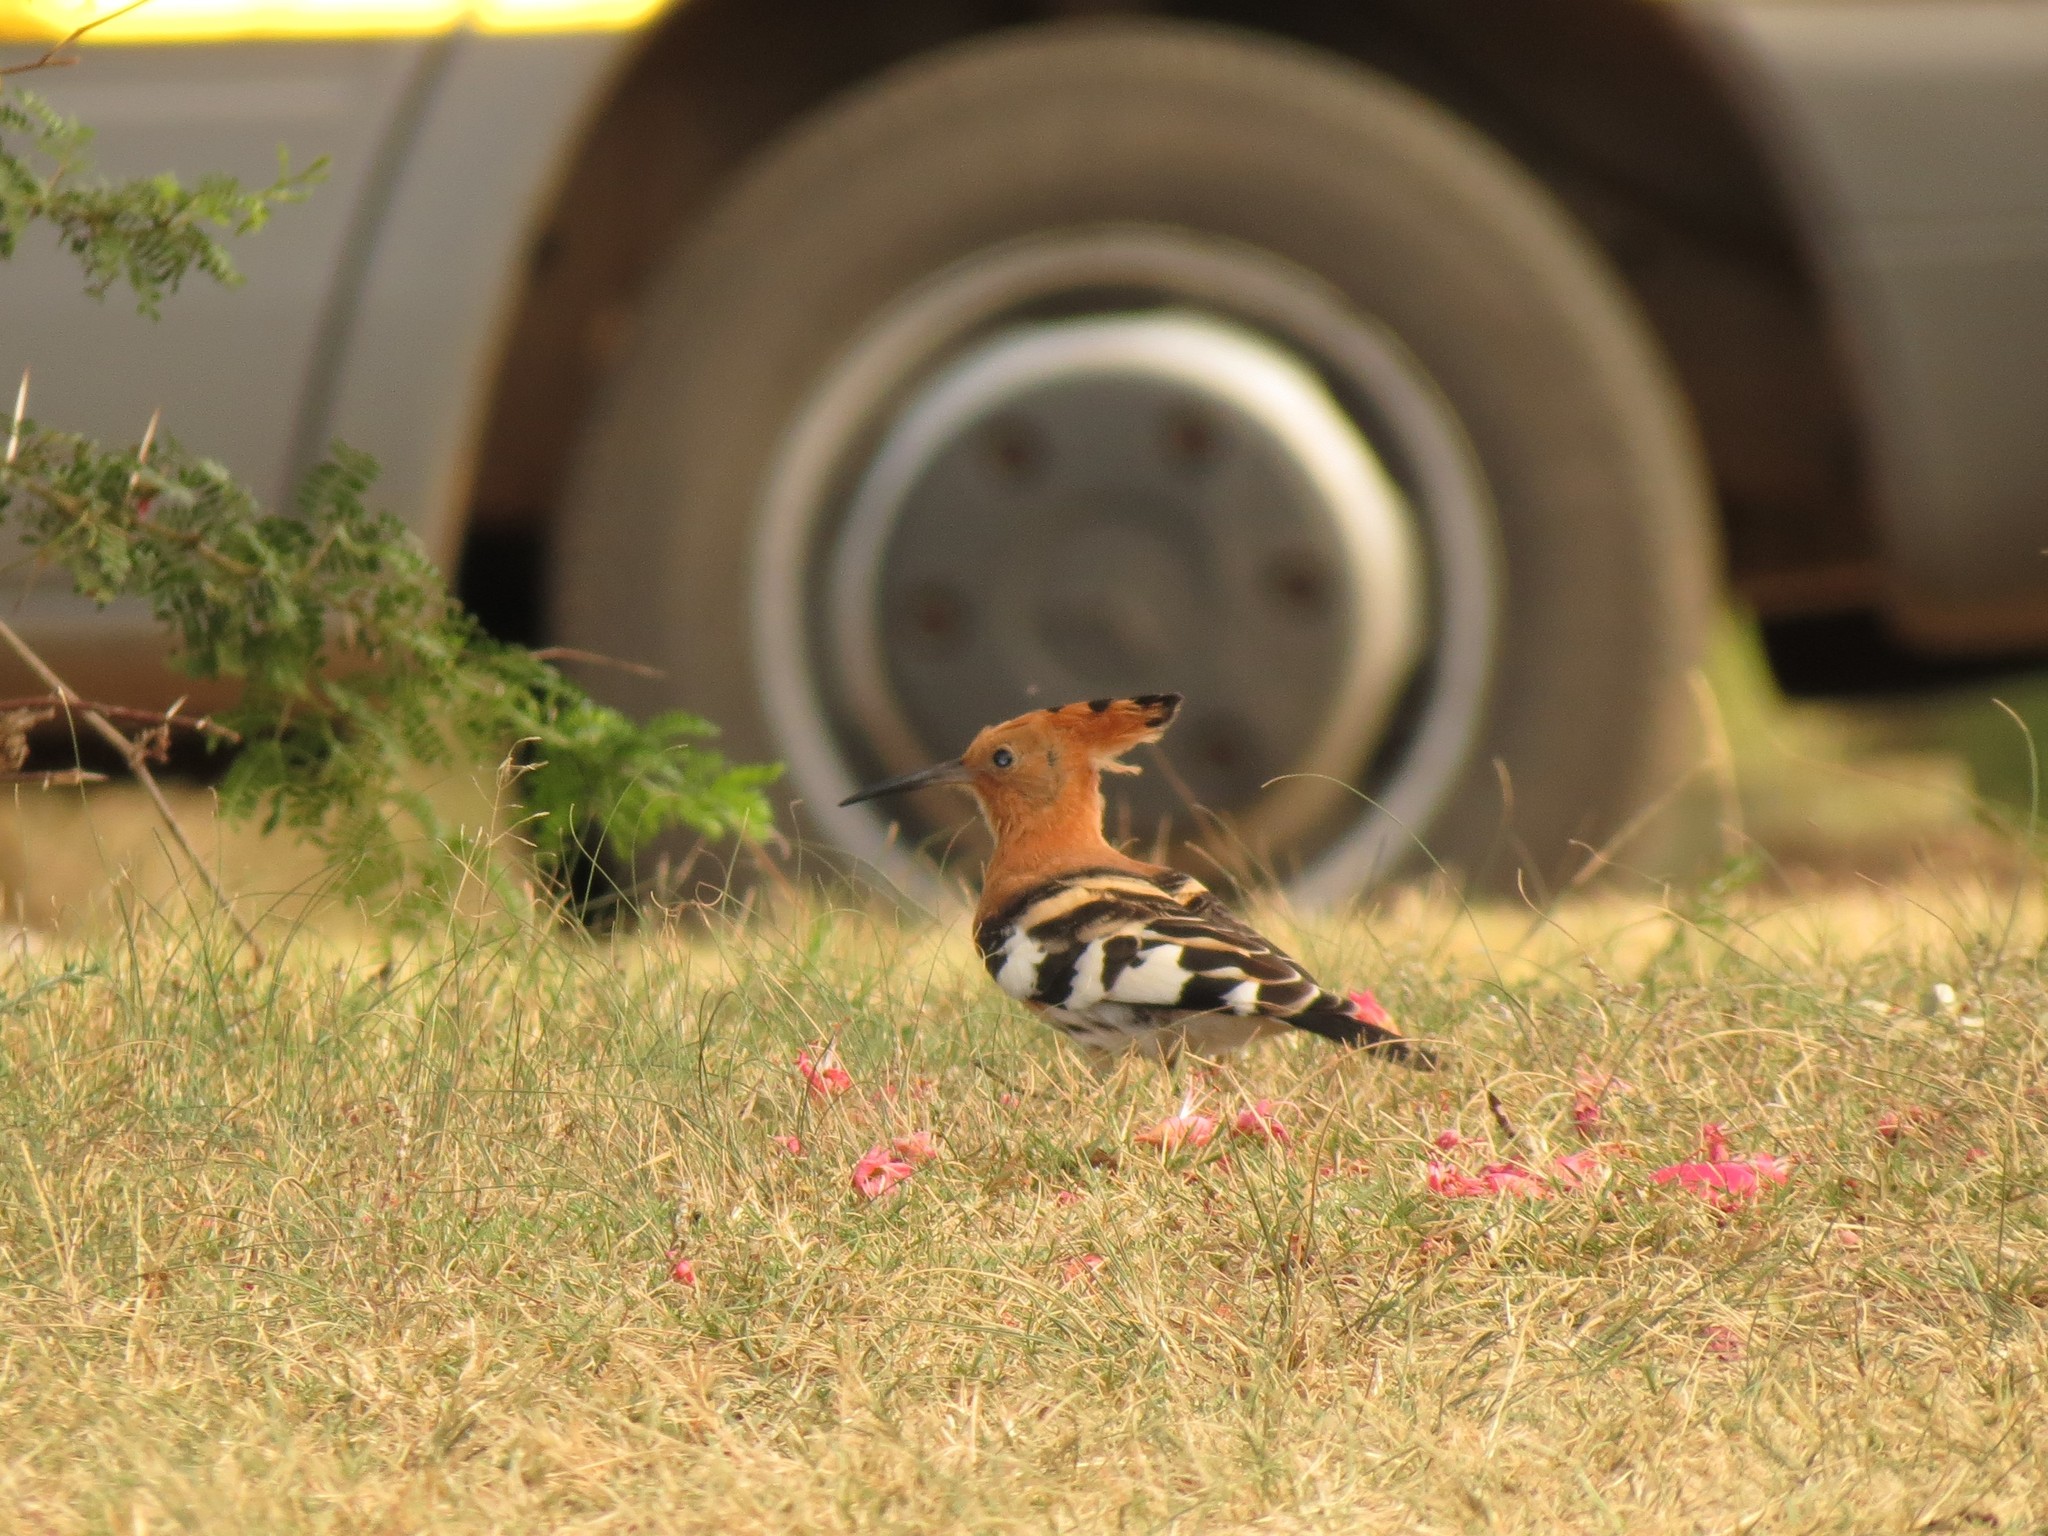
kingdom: Animalia
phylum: Chordata
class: Aves
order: Bucerotiformes
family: Upupidae
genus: Upupa
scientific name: Upupa africana
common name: African hoopoe
